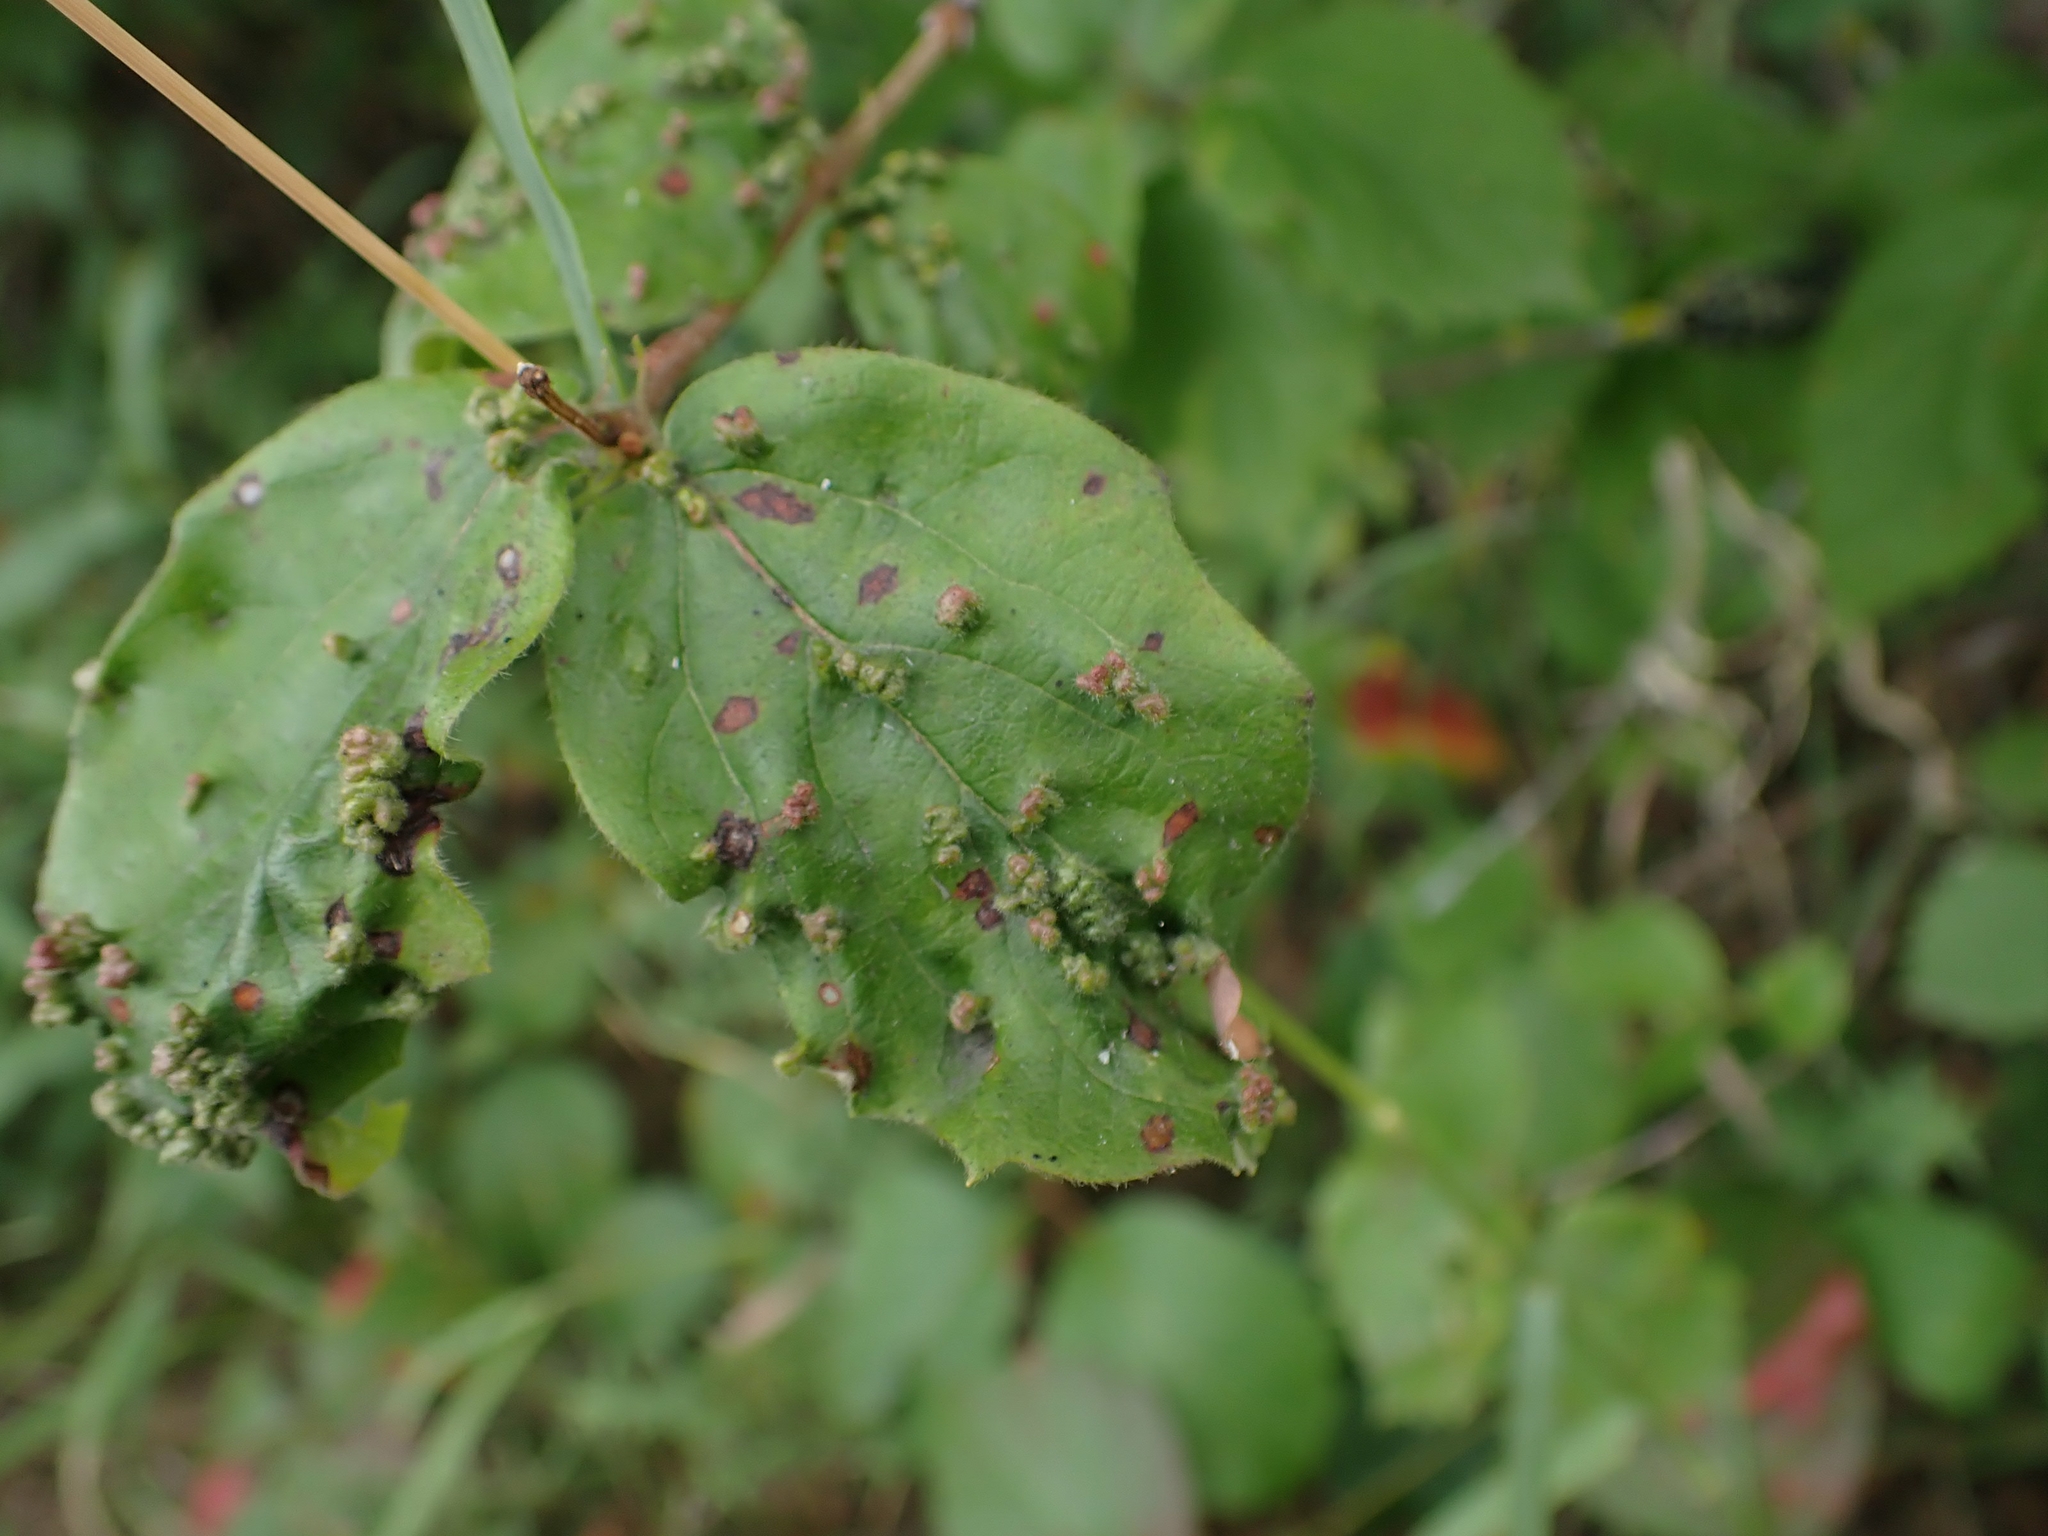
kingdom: Animalia
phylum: Arthropoda
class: Arachnida
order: Trombidiformes
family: Eriophyidae
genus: Eriophyes
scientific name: Eriophyes
